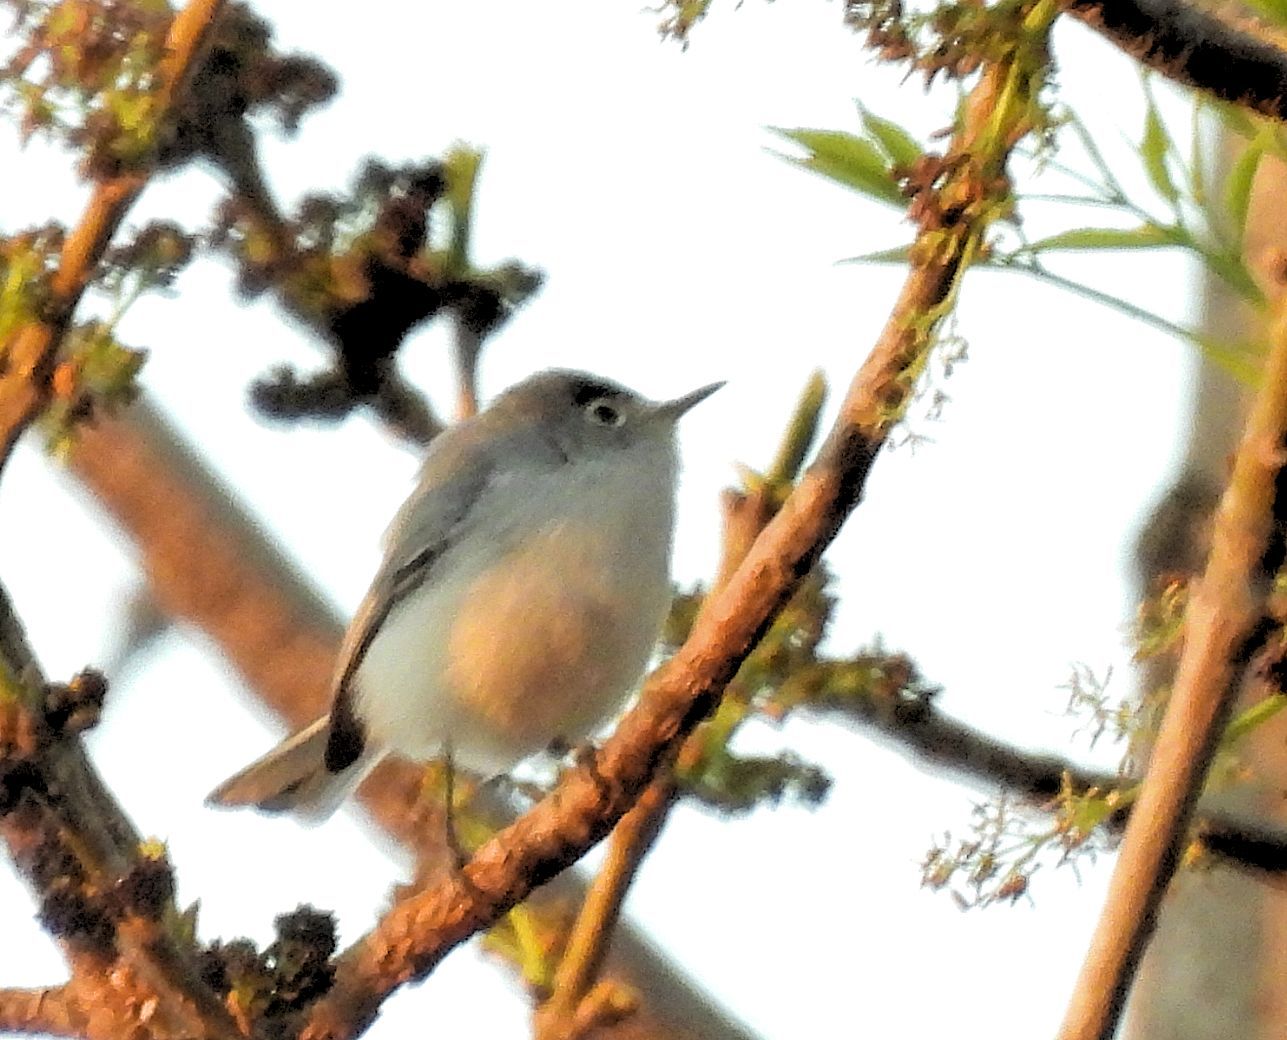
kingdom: Animalia
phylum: Chordata
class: Aves
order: Passeriformes
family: Polioptilidae
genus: Polioptila
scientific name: Polioptila caerulea
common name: Blue-gray gnatcatcher
